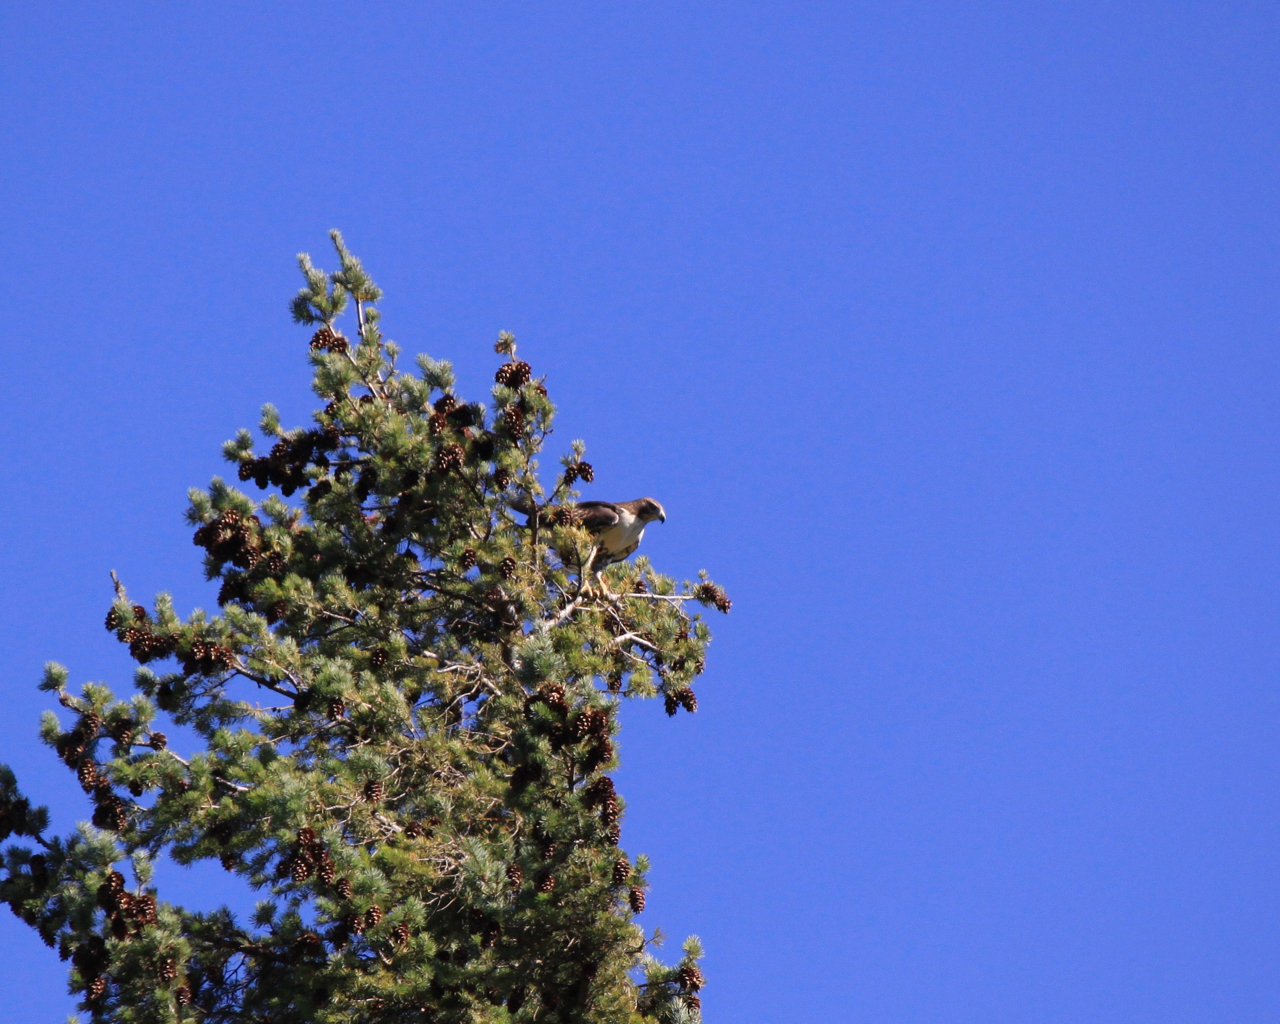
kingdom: Animalia
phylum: Chordata
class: Aves
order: Accipitriformes
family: Accipitridae
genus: Buteo
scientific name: Buteo jamaicensis
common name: Red-tailed hawk
